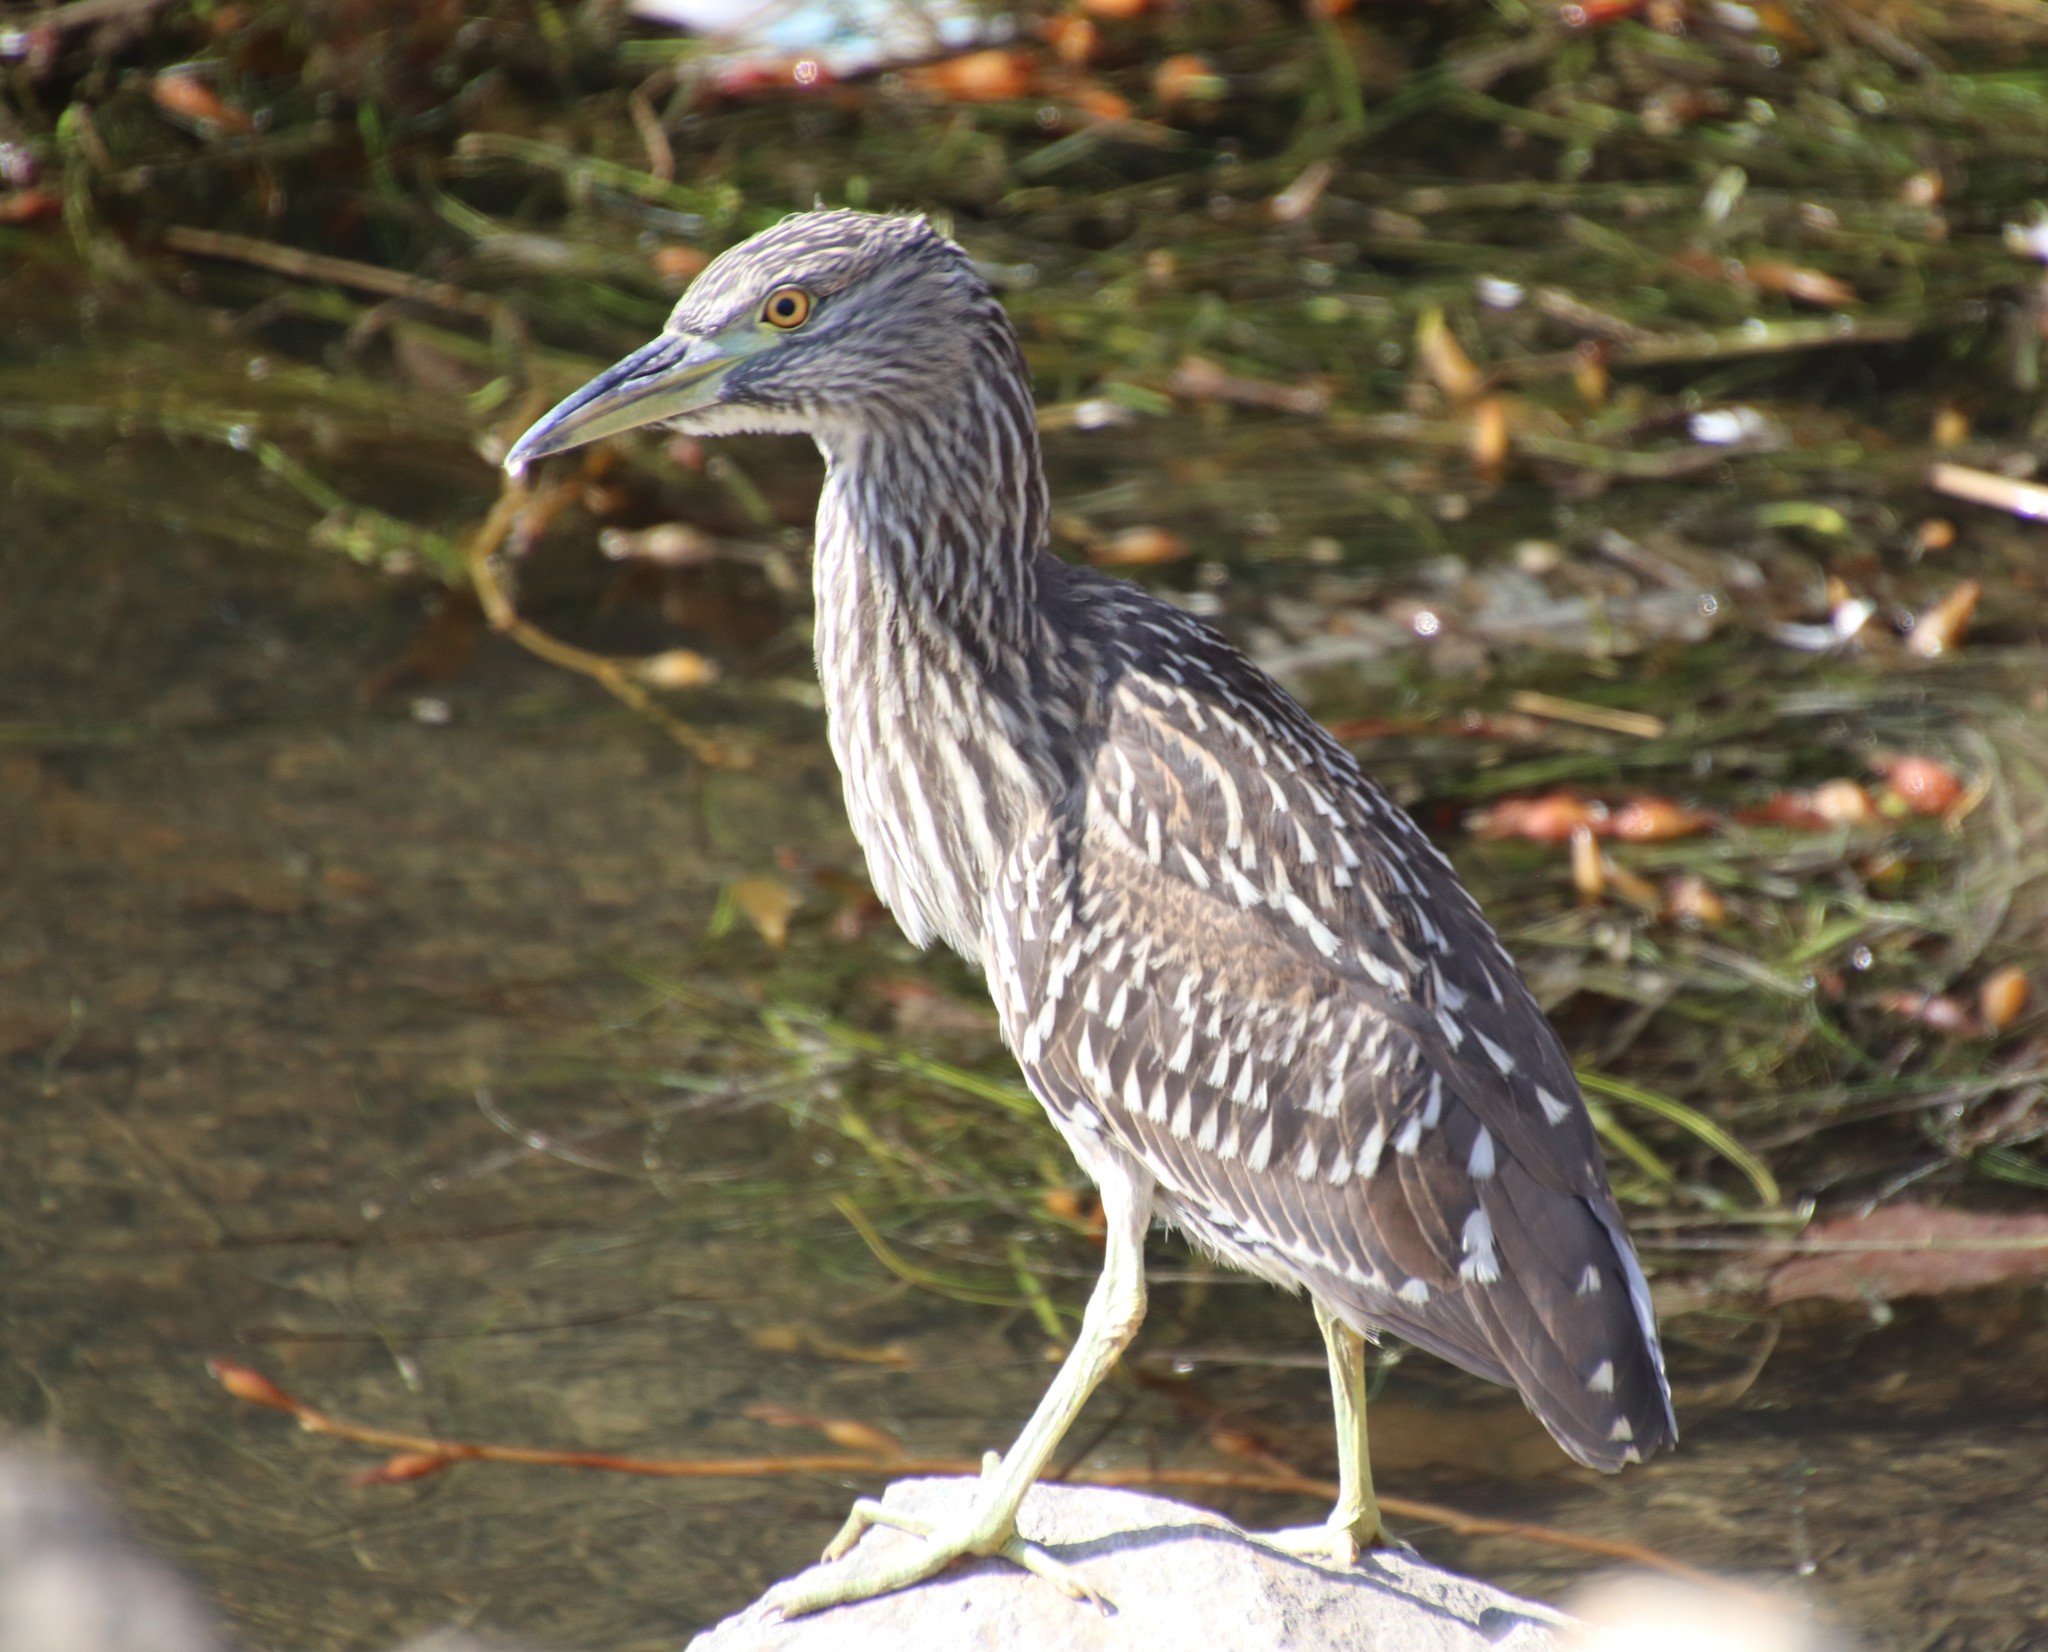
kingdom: Animalia
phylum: Chordata
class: Aves
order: Pelecaniformes
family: Ardeidae
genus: Nycticorax
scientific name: Nycticorax nycticorax
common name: Black-crowned night heron
